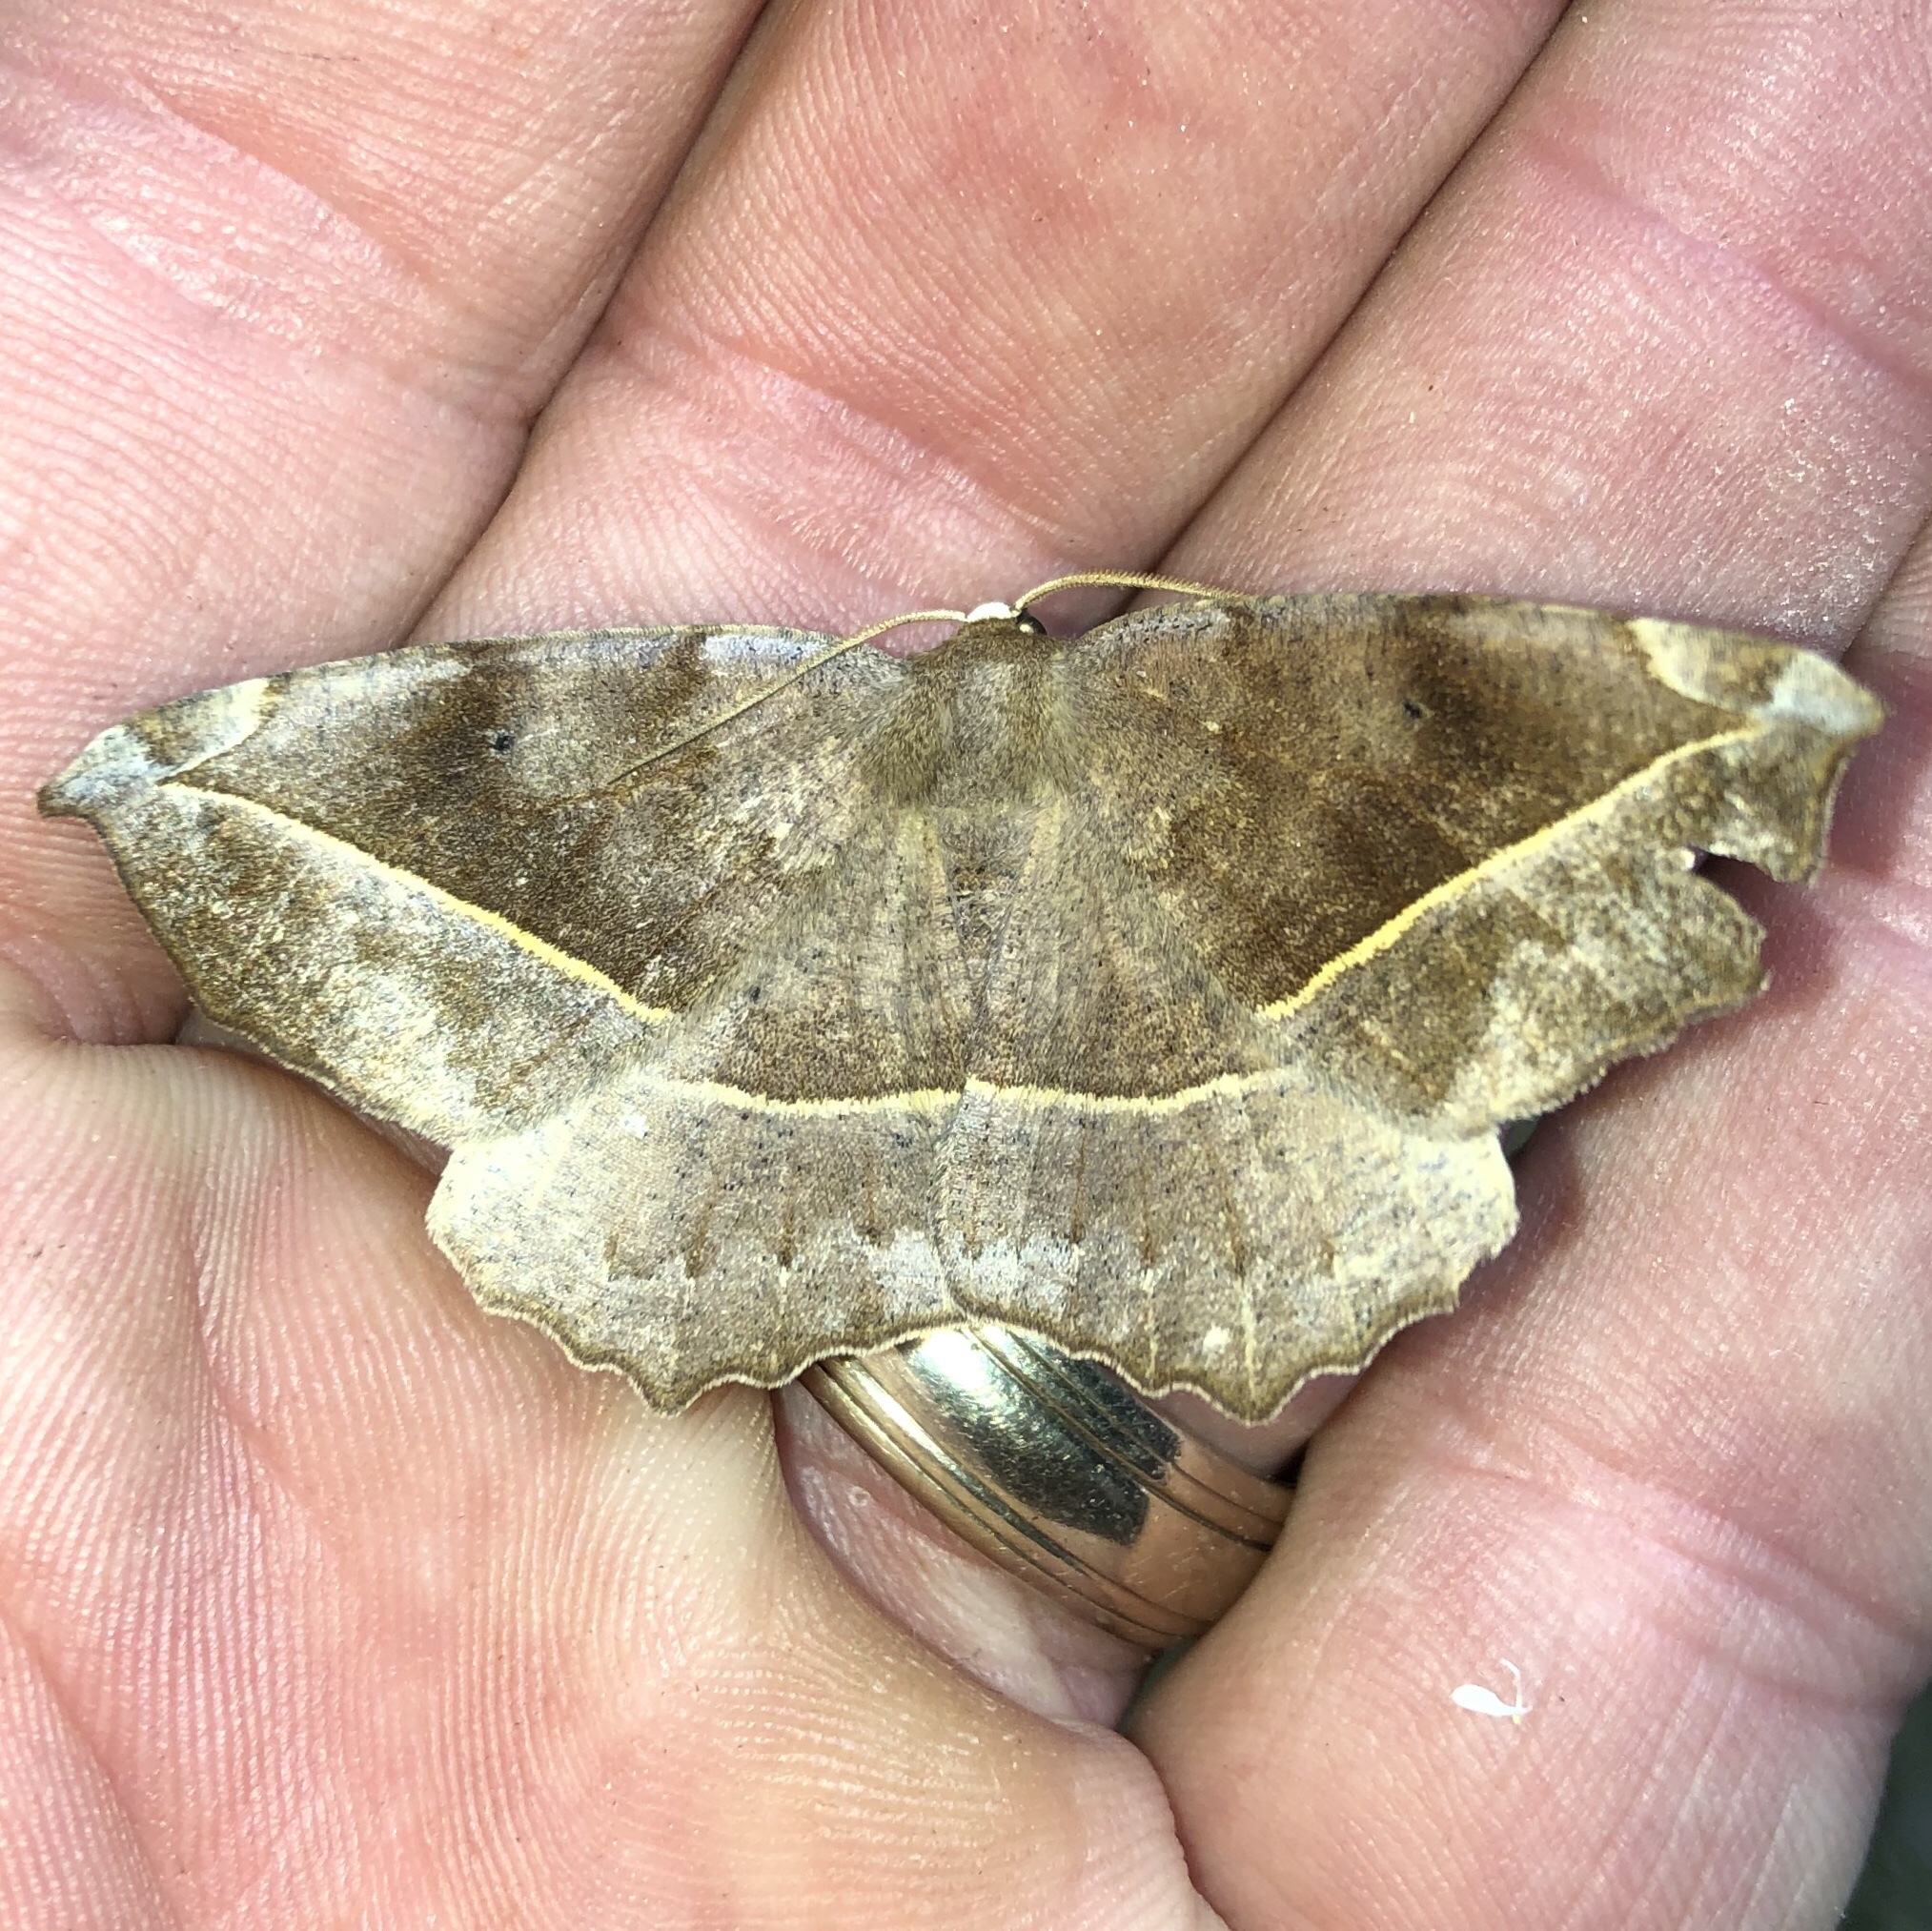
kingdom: Animalia
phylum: Arthropoda
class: Insecta
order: Lepidoptera
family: Geometridae
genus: Eutrapela
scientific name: Eutrapela clemataria
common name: Curved-toothed geometer
